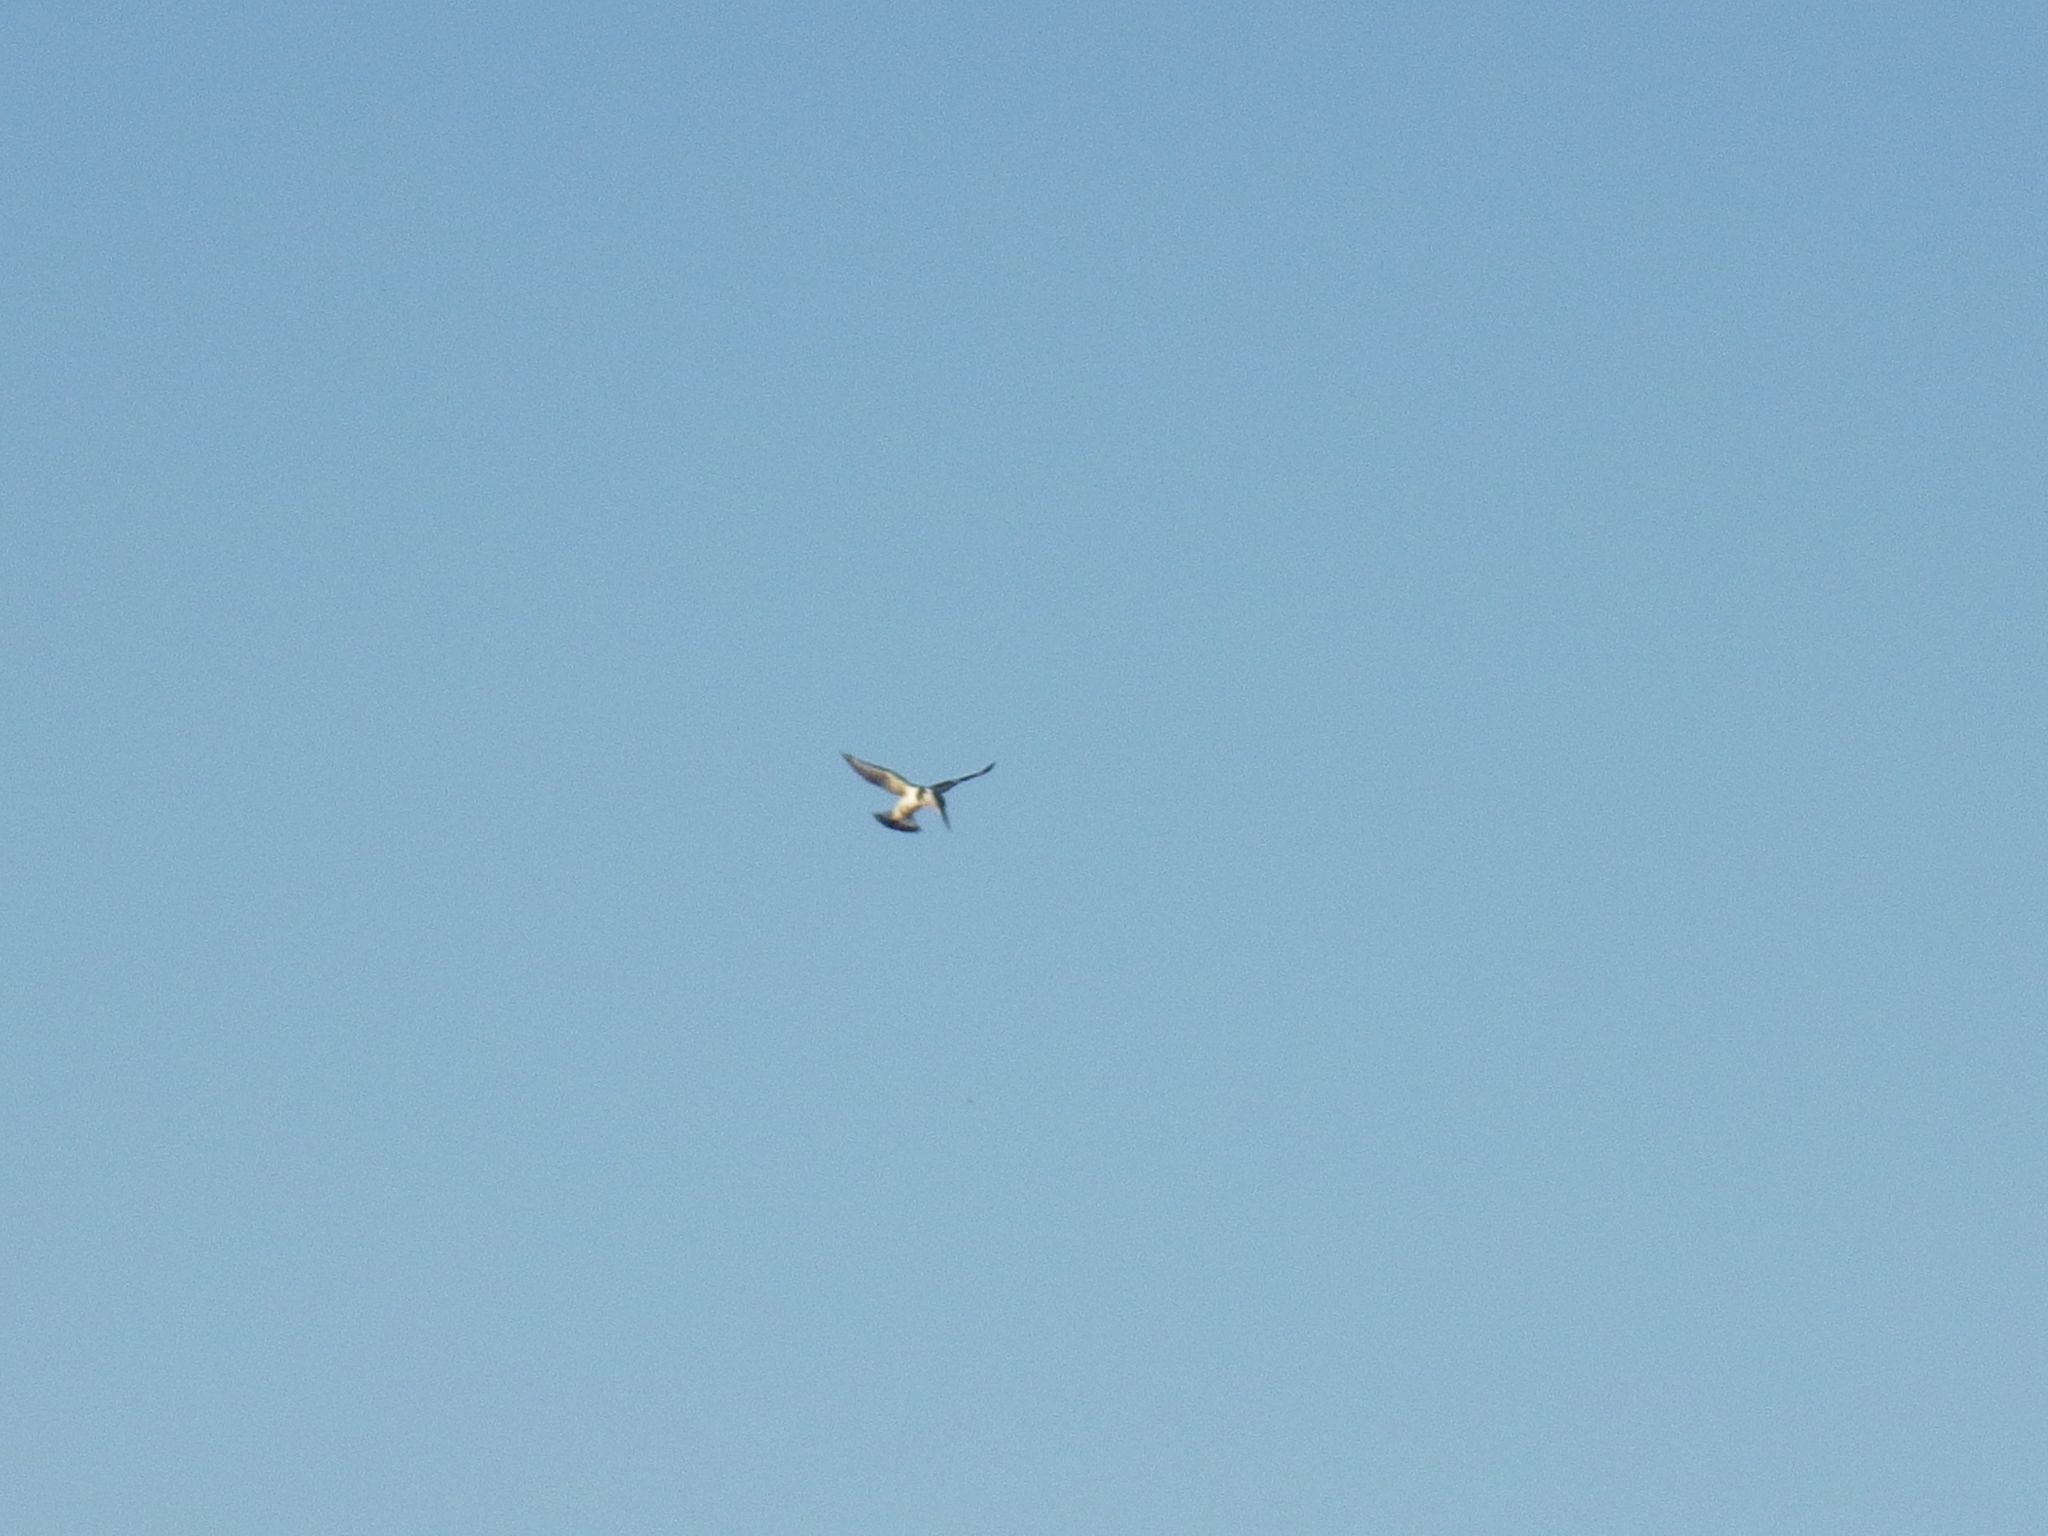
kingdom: Animalia
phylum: Chordata
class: Aves
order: Coraciiformes
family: Alcedinidae
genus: Ceryle
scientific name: Ceryle rudis
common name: Pied kingfisher
